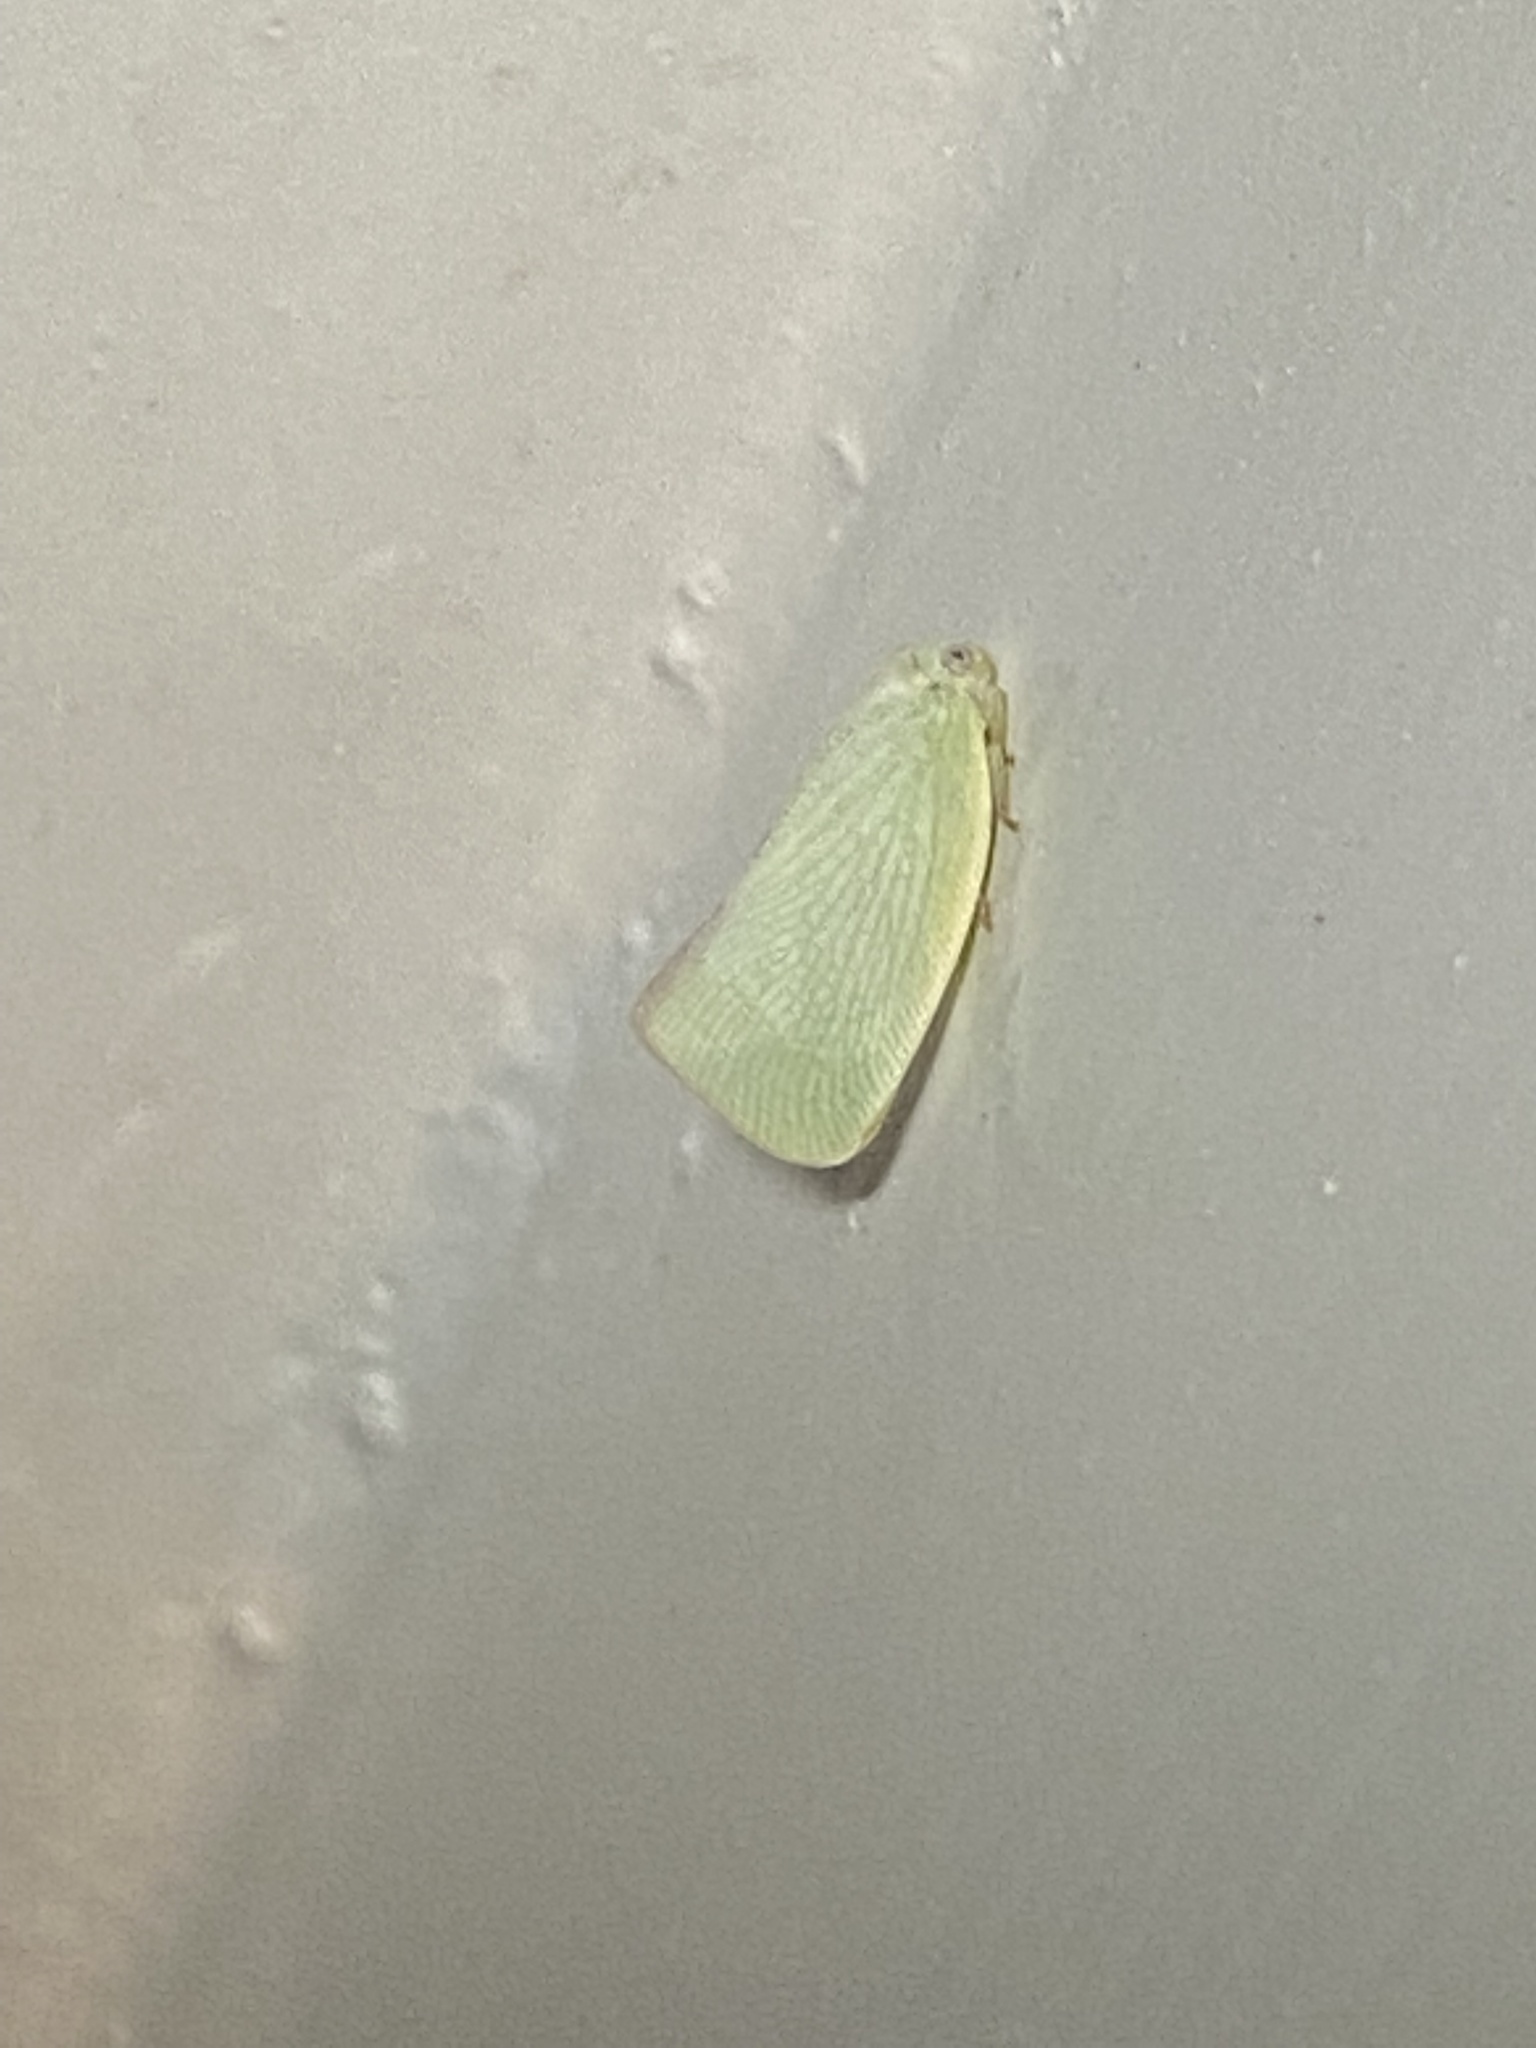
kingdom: Animalia
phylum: Arthropoda
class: Insecta
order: Hemiptera
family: Flatidae
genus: Flatormenis
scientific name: Flatormenis proxima
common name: Northern flatid planthopper
